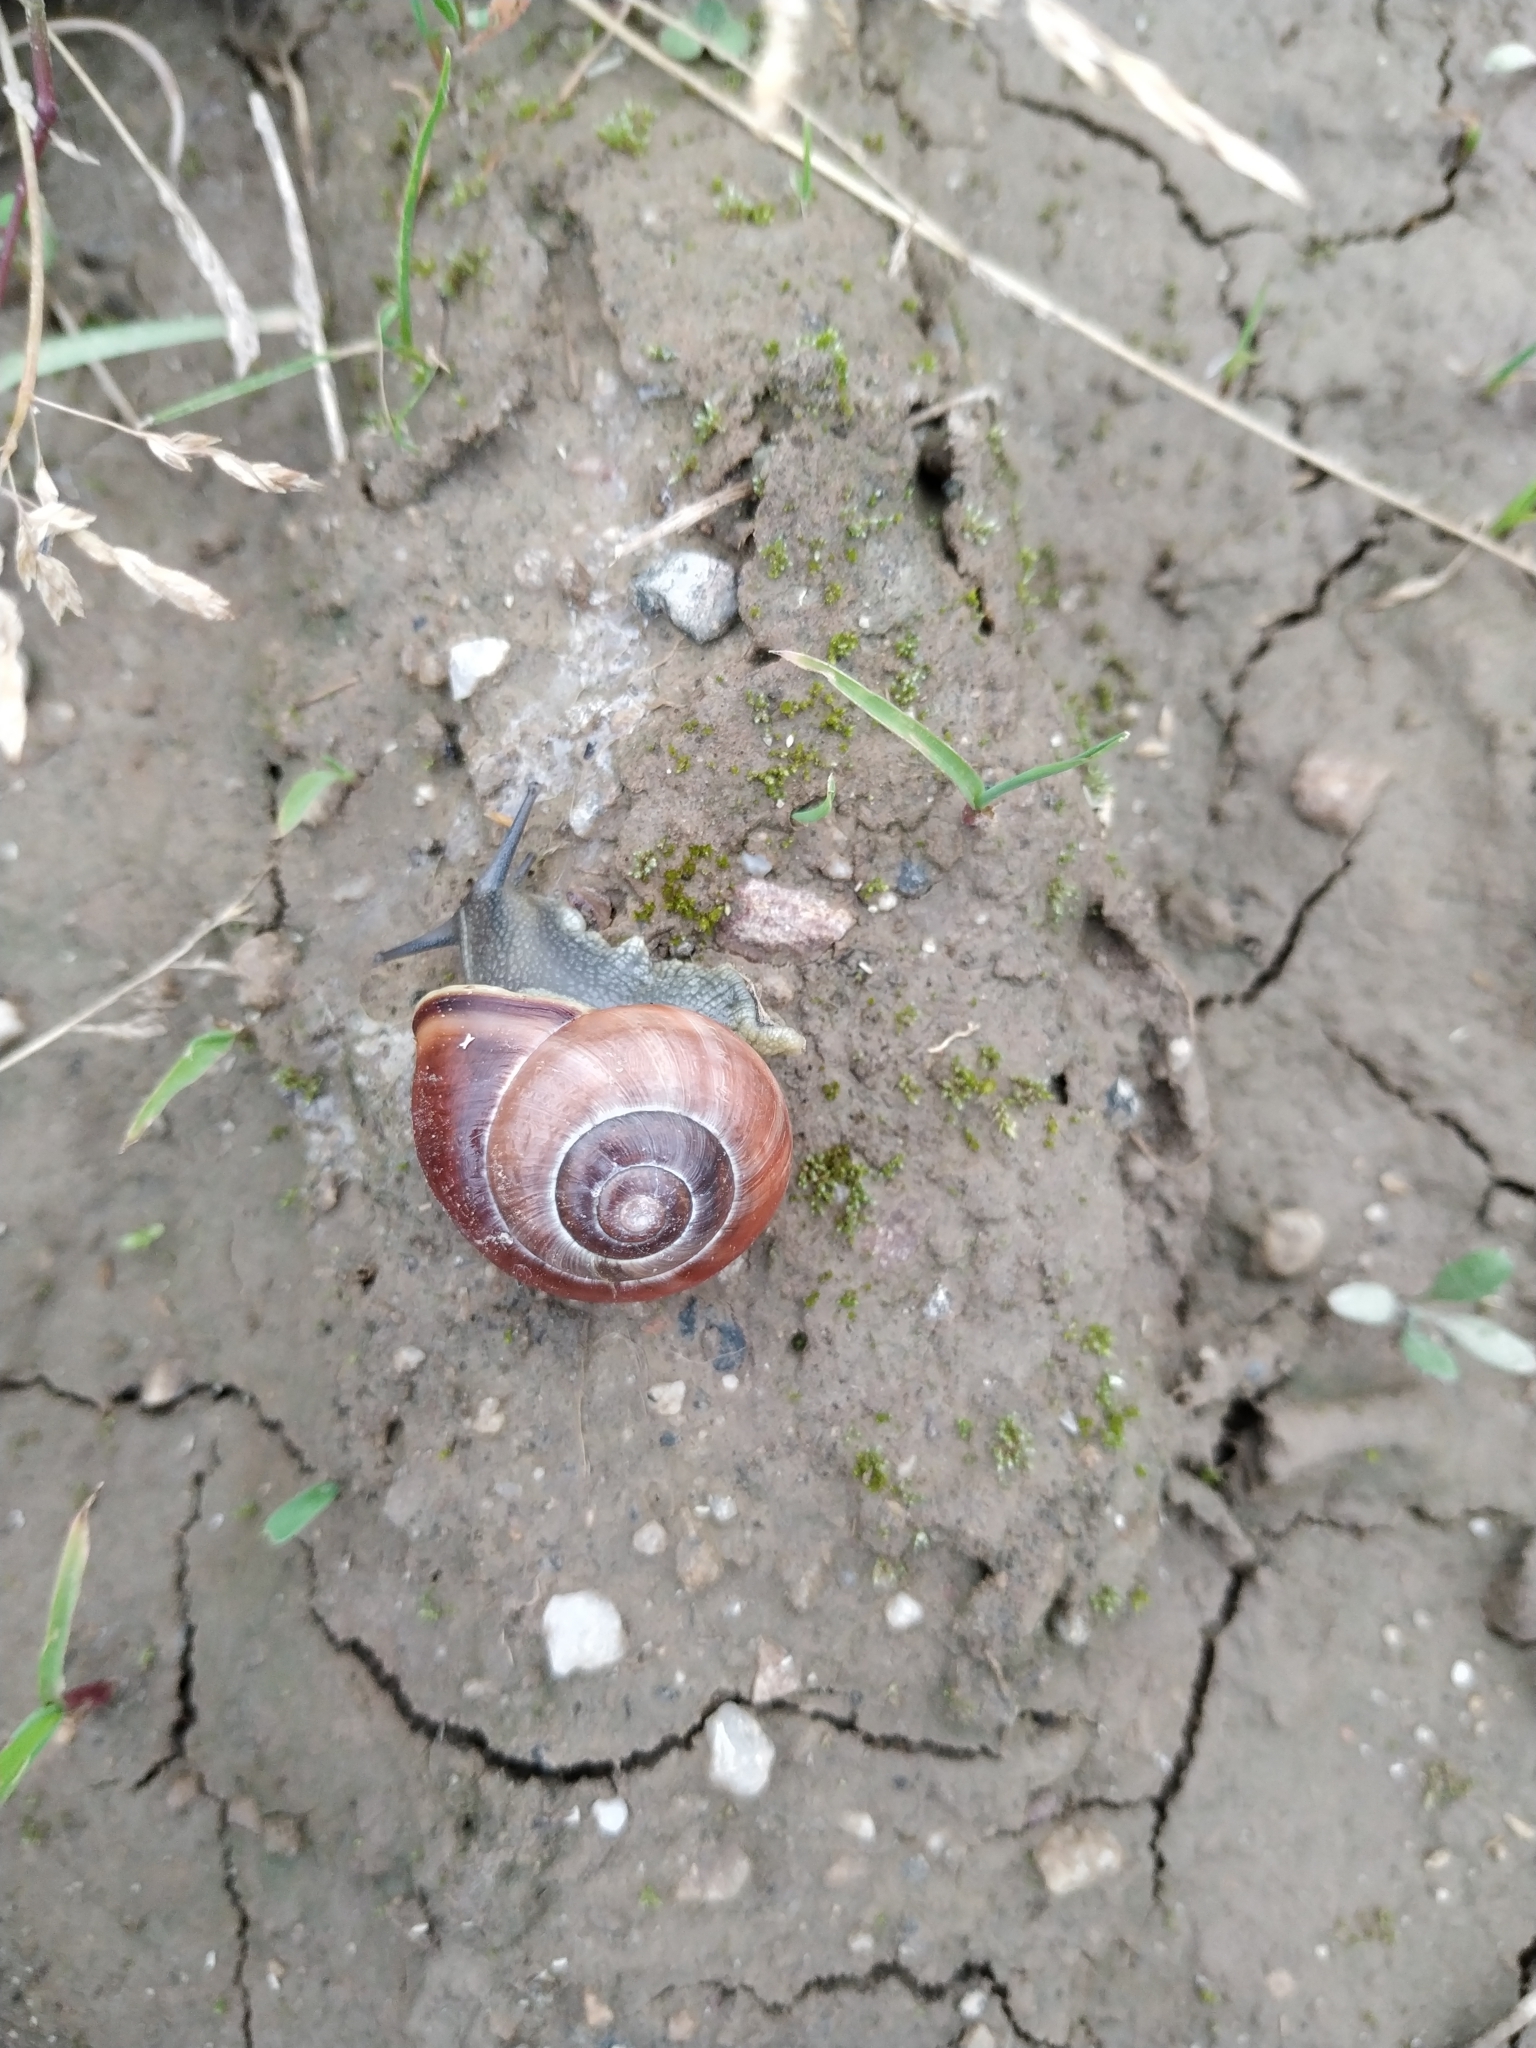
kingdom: Animalia
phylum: Mollusca
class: Gastropoda
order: Stylommatophora
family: Helicidae
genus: Cepaea
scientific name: Cepaea nemoralis
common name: Grovesnail
